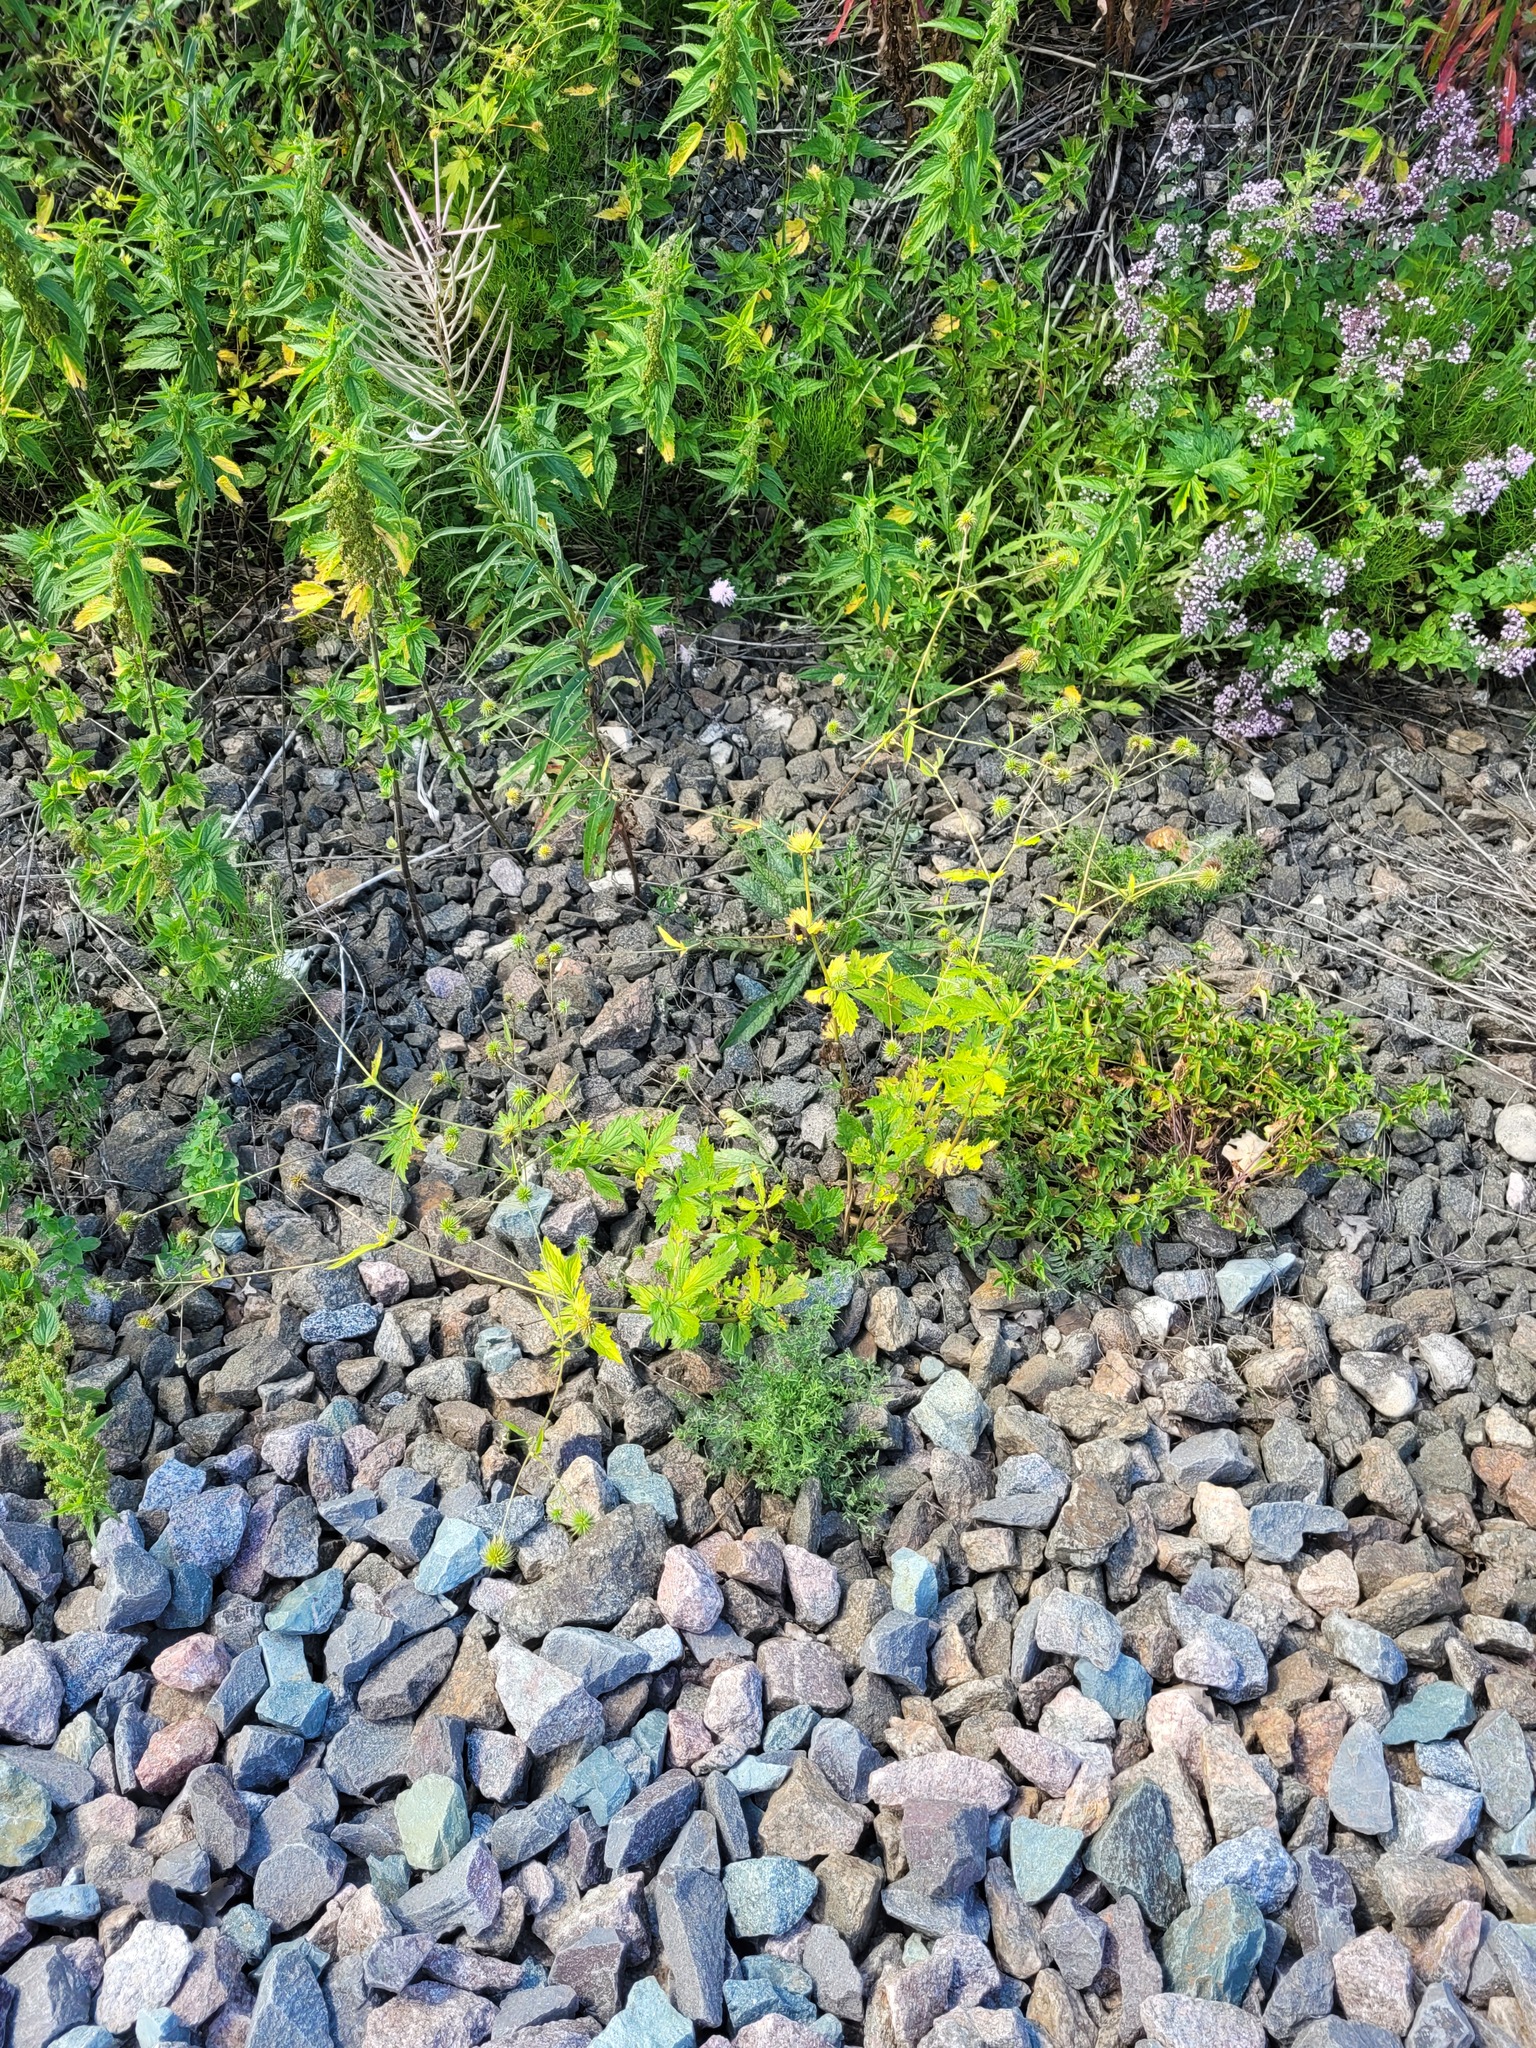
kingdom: Plantae
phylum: Tracheophyta
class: Magnoliopsida
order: Rosales
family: Rosaceae
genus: Geum
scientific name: Geum urbanum
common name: Wood avens
